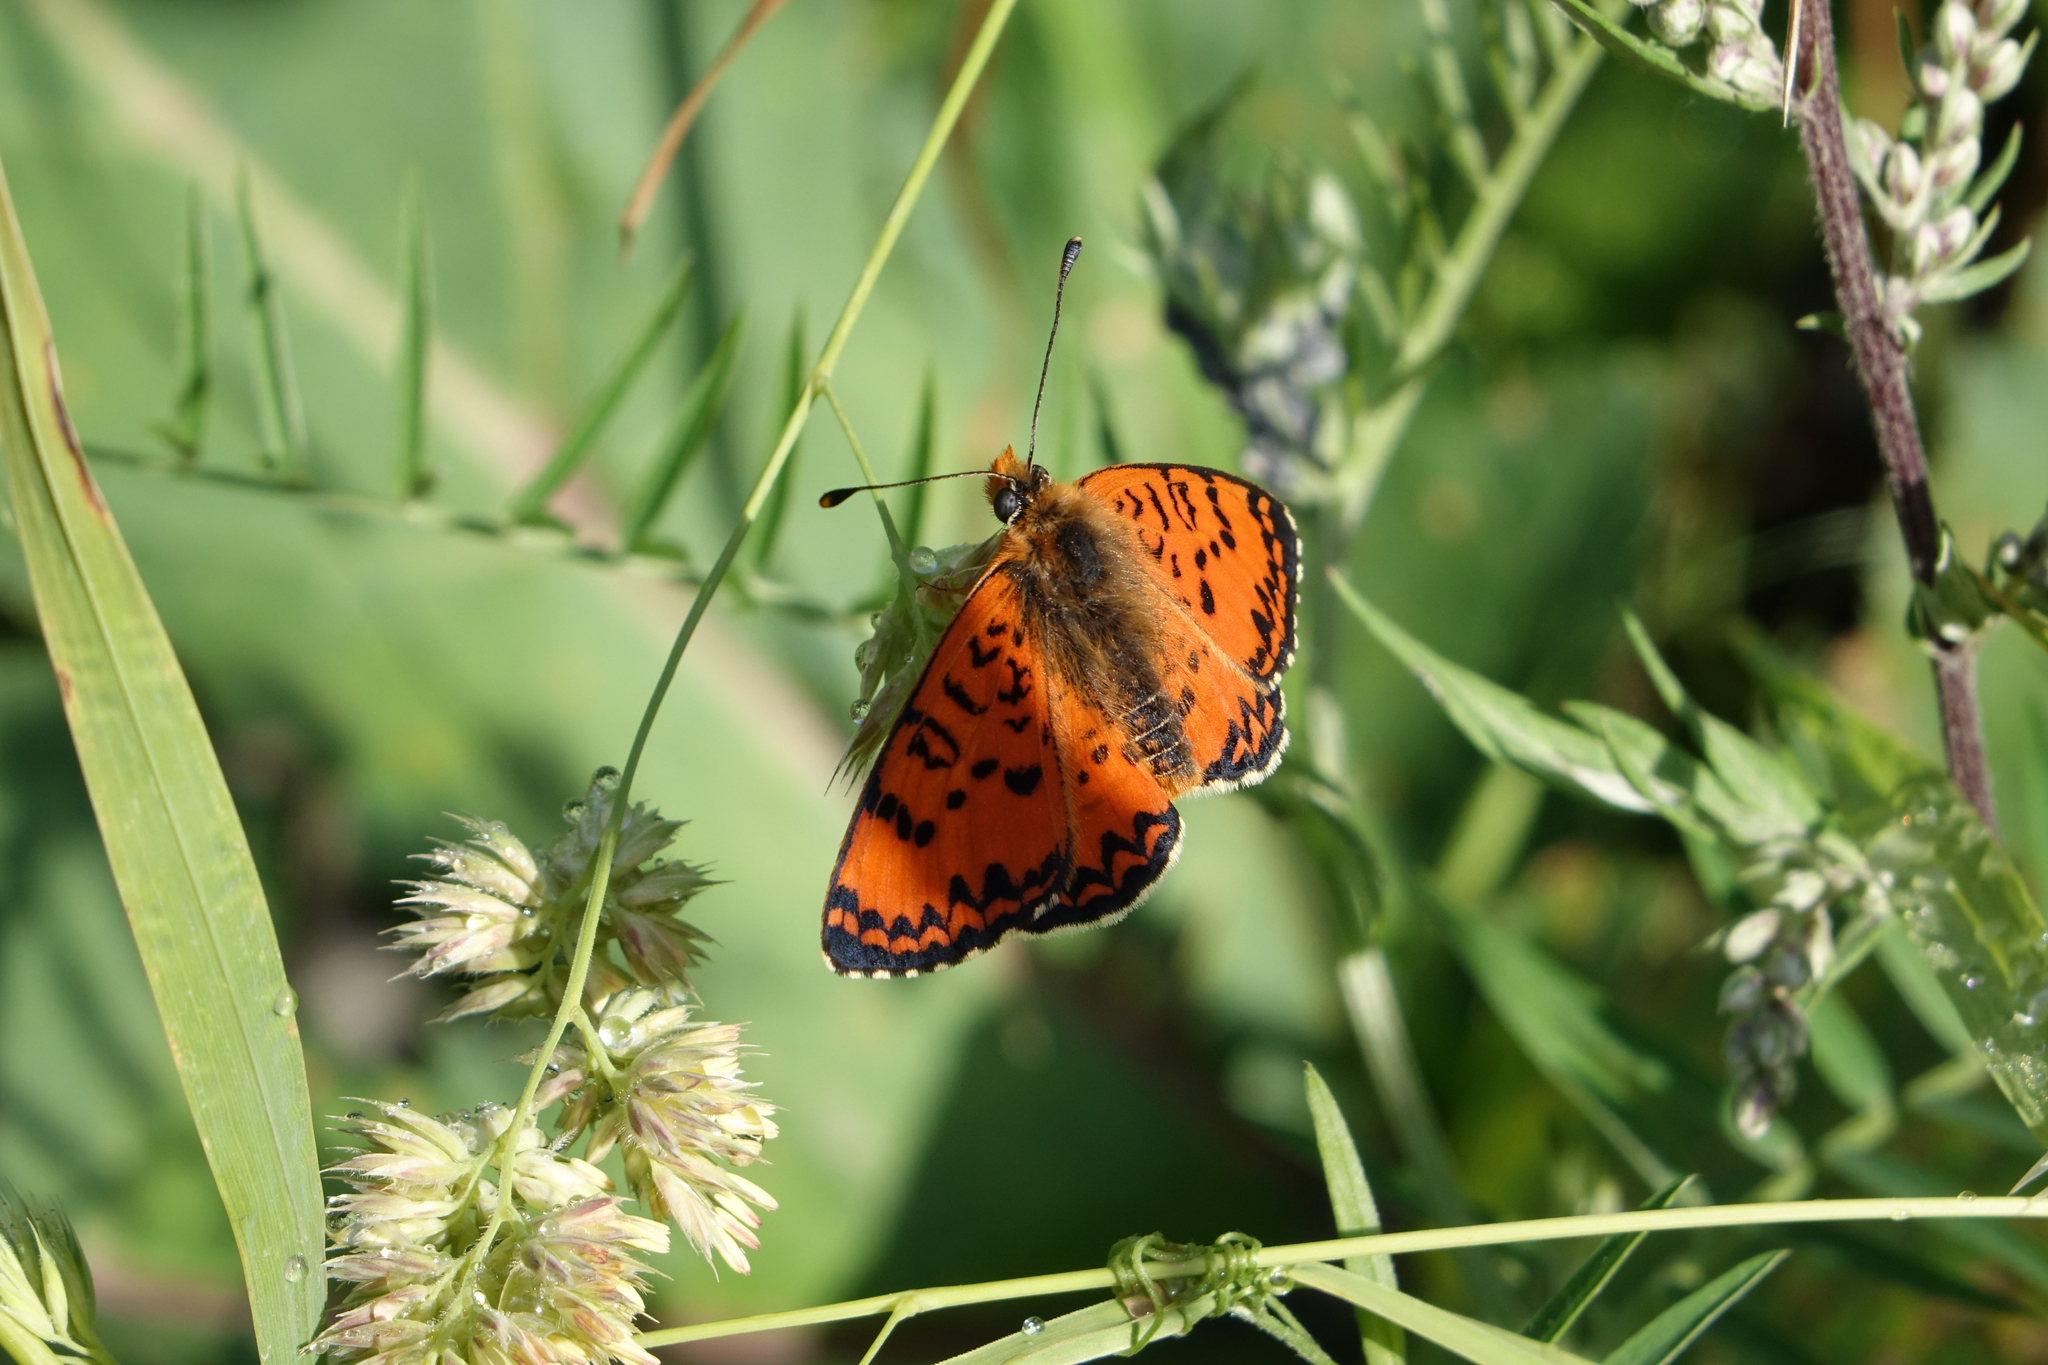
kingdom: Animalia
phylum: Arthropoda
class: Insecta
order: Lepidoptera
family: Nymphalidae
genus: Melitaea
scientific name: Melitaea cinxia
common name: Glanville fritillary
